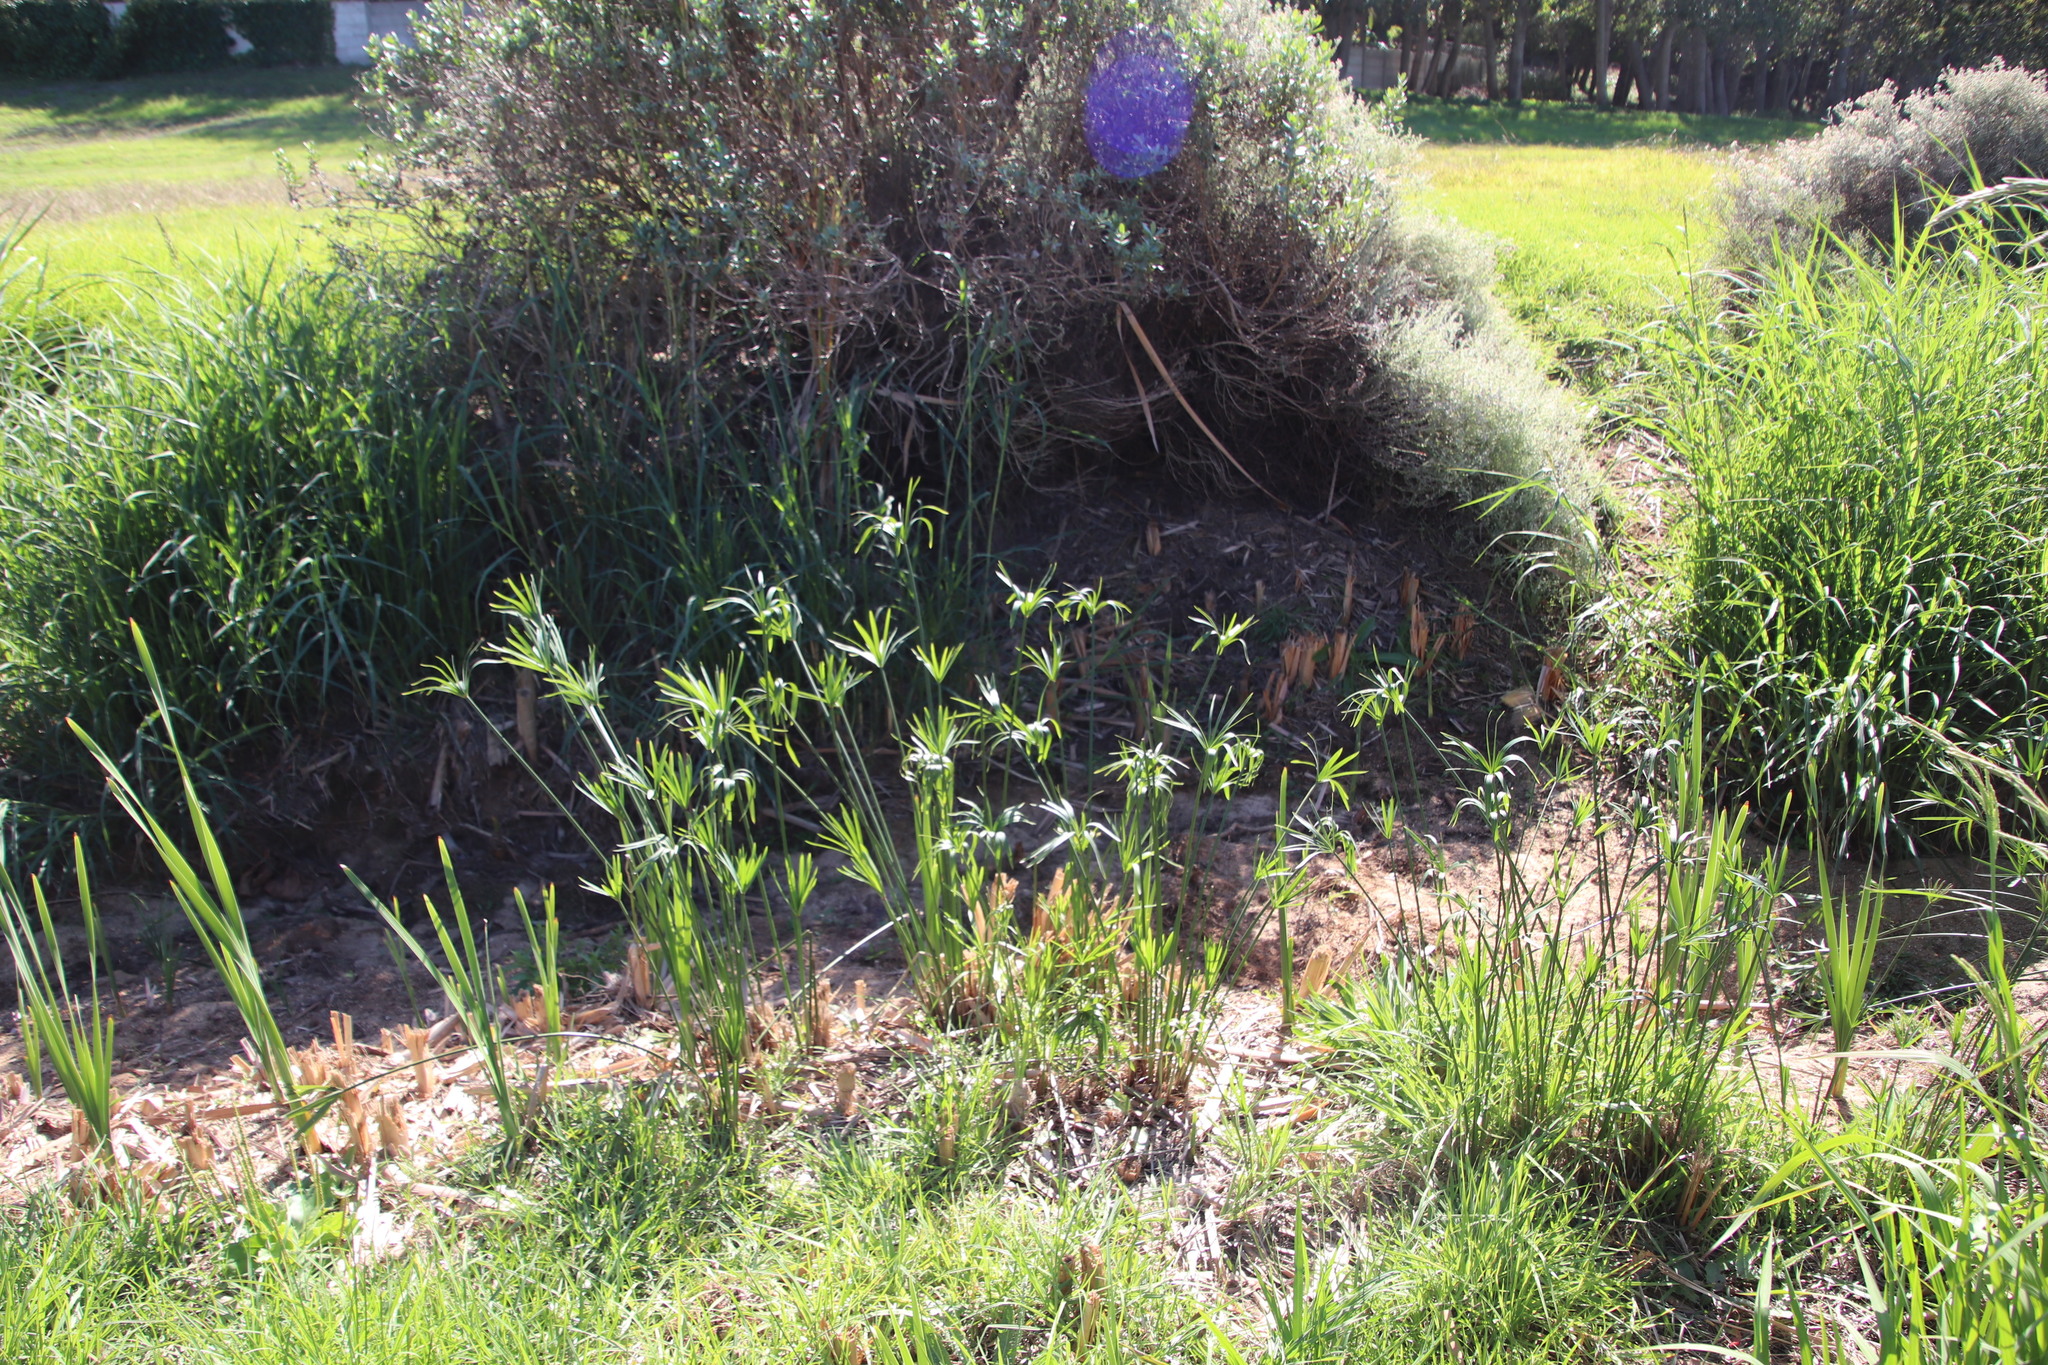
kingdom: Plantae
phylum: Tracheophyta
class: Liliopsida
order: Poales
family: Cyperaceae
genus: Cyperus
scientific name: Cyperus textilis
